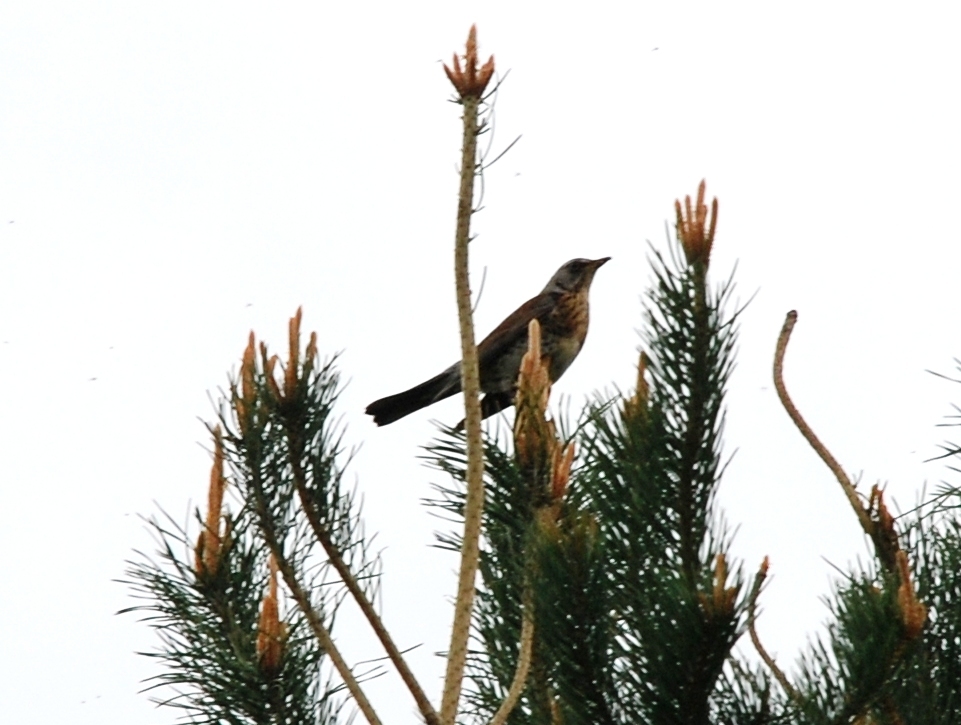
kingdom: Animalia
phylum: Chordata
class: Aves
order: Passeriformes
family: Turdidae
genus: Turdus
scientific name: Turdus pilaris
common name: Fieldfare
